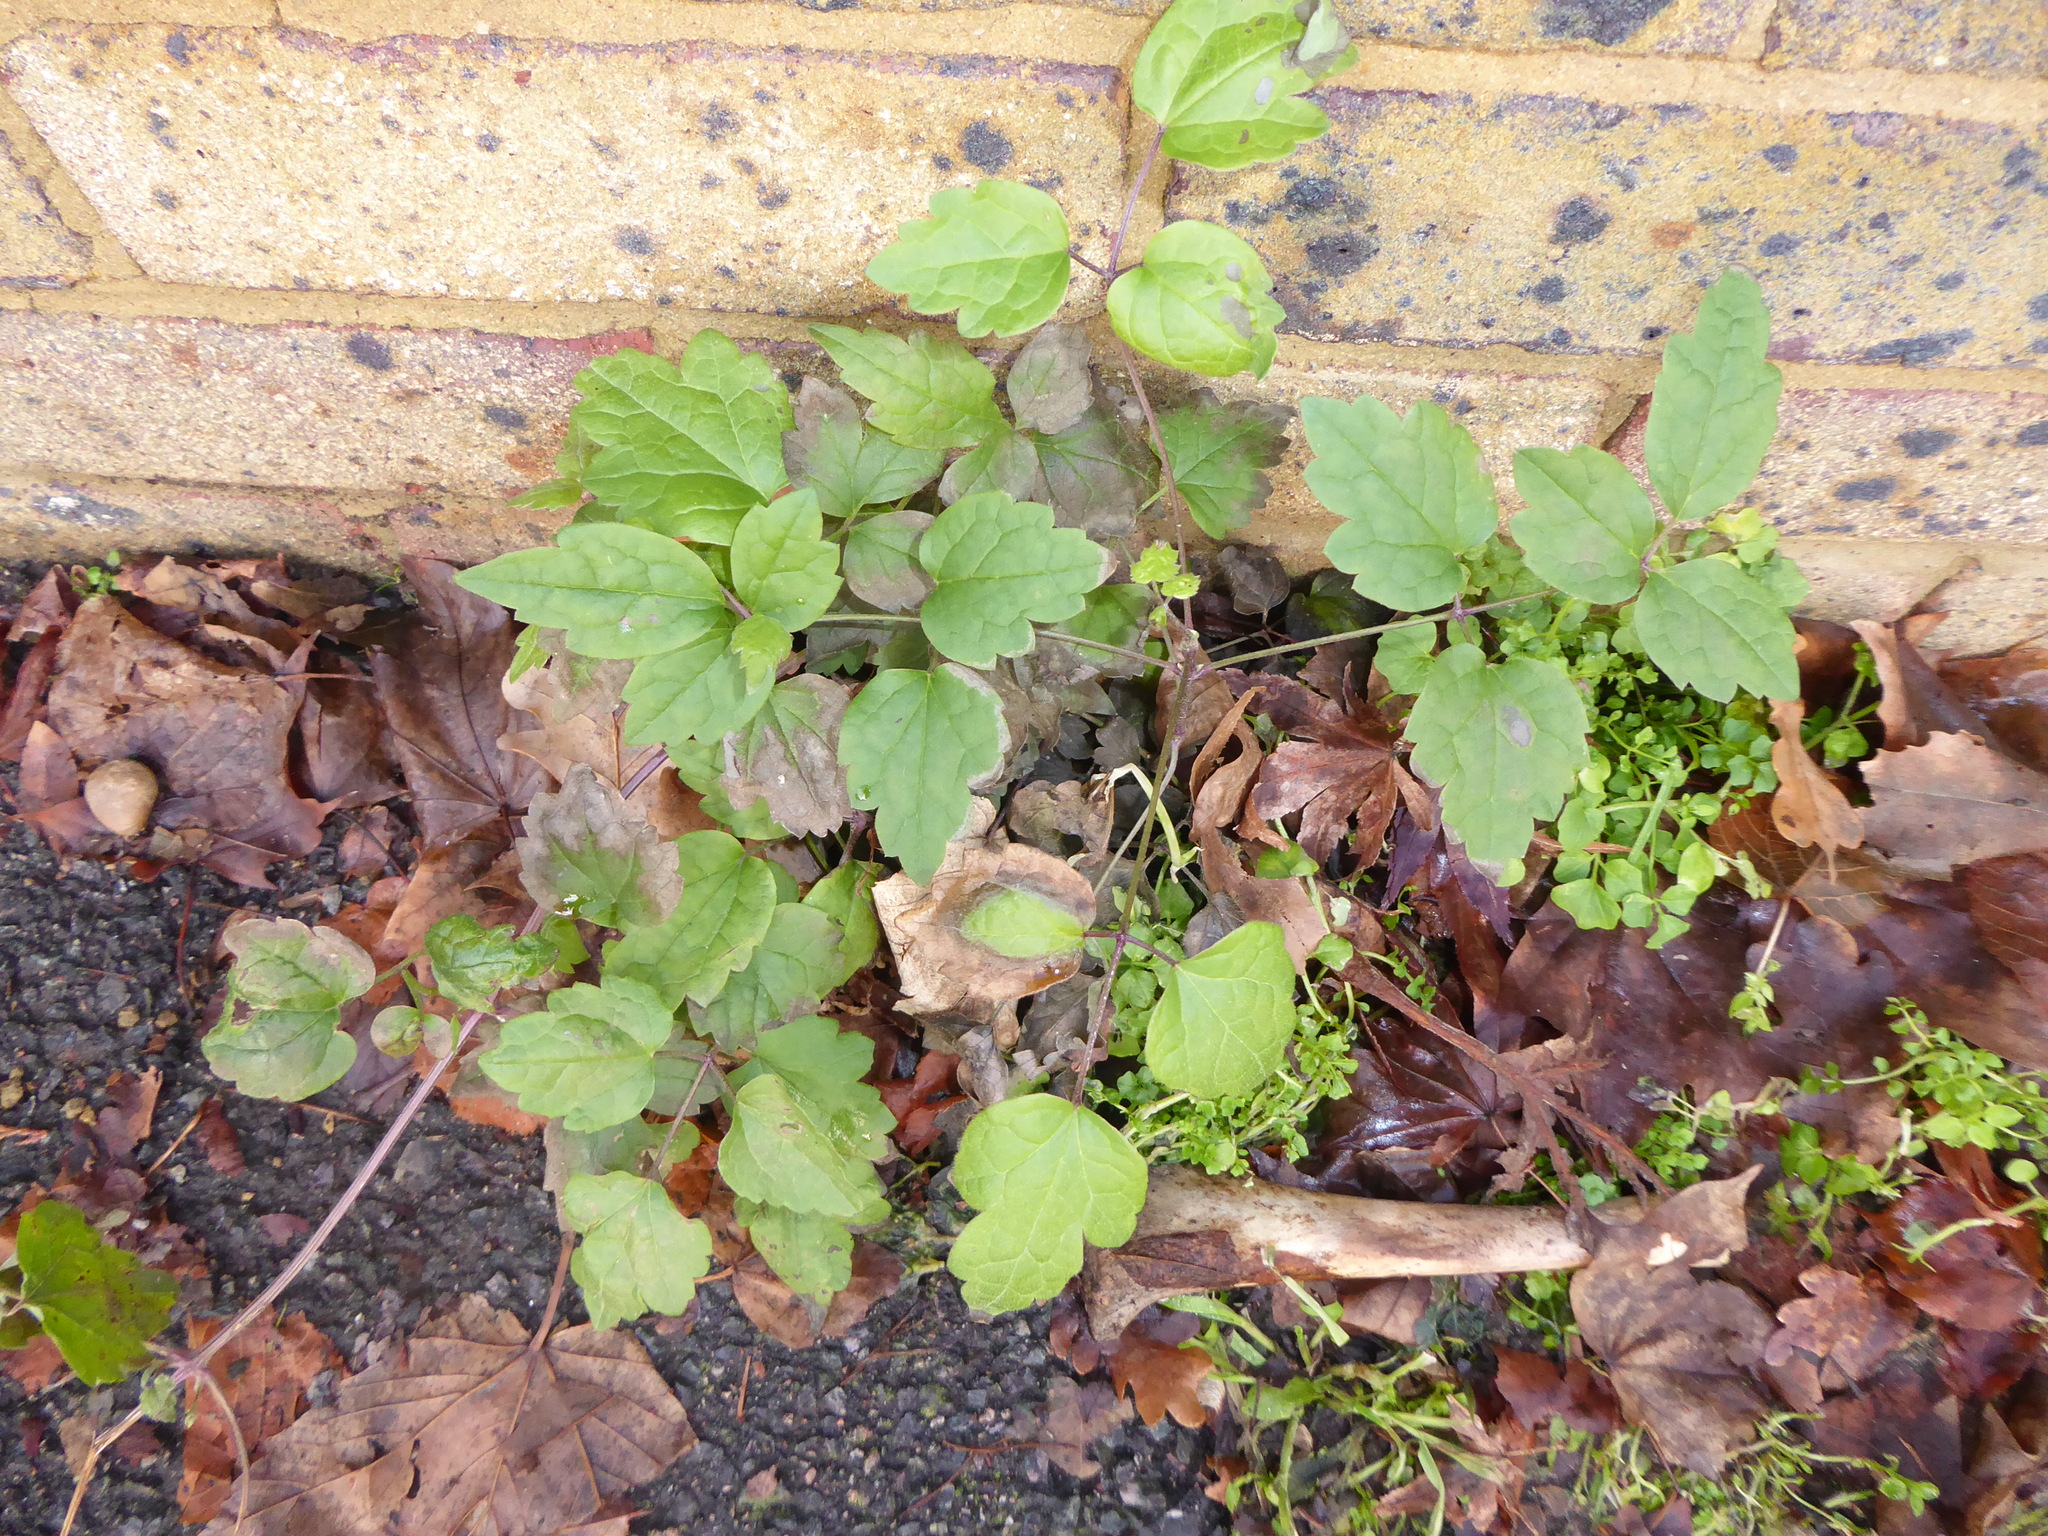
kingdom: Plantae
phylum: Tracheophyta
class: Magnoliopsida
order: Ranunculales
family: Ranunculaceae
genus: Clematis
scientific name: Clematis vitalba
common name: Evergreen clematis
